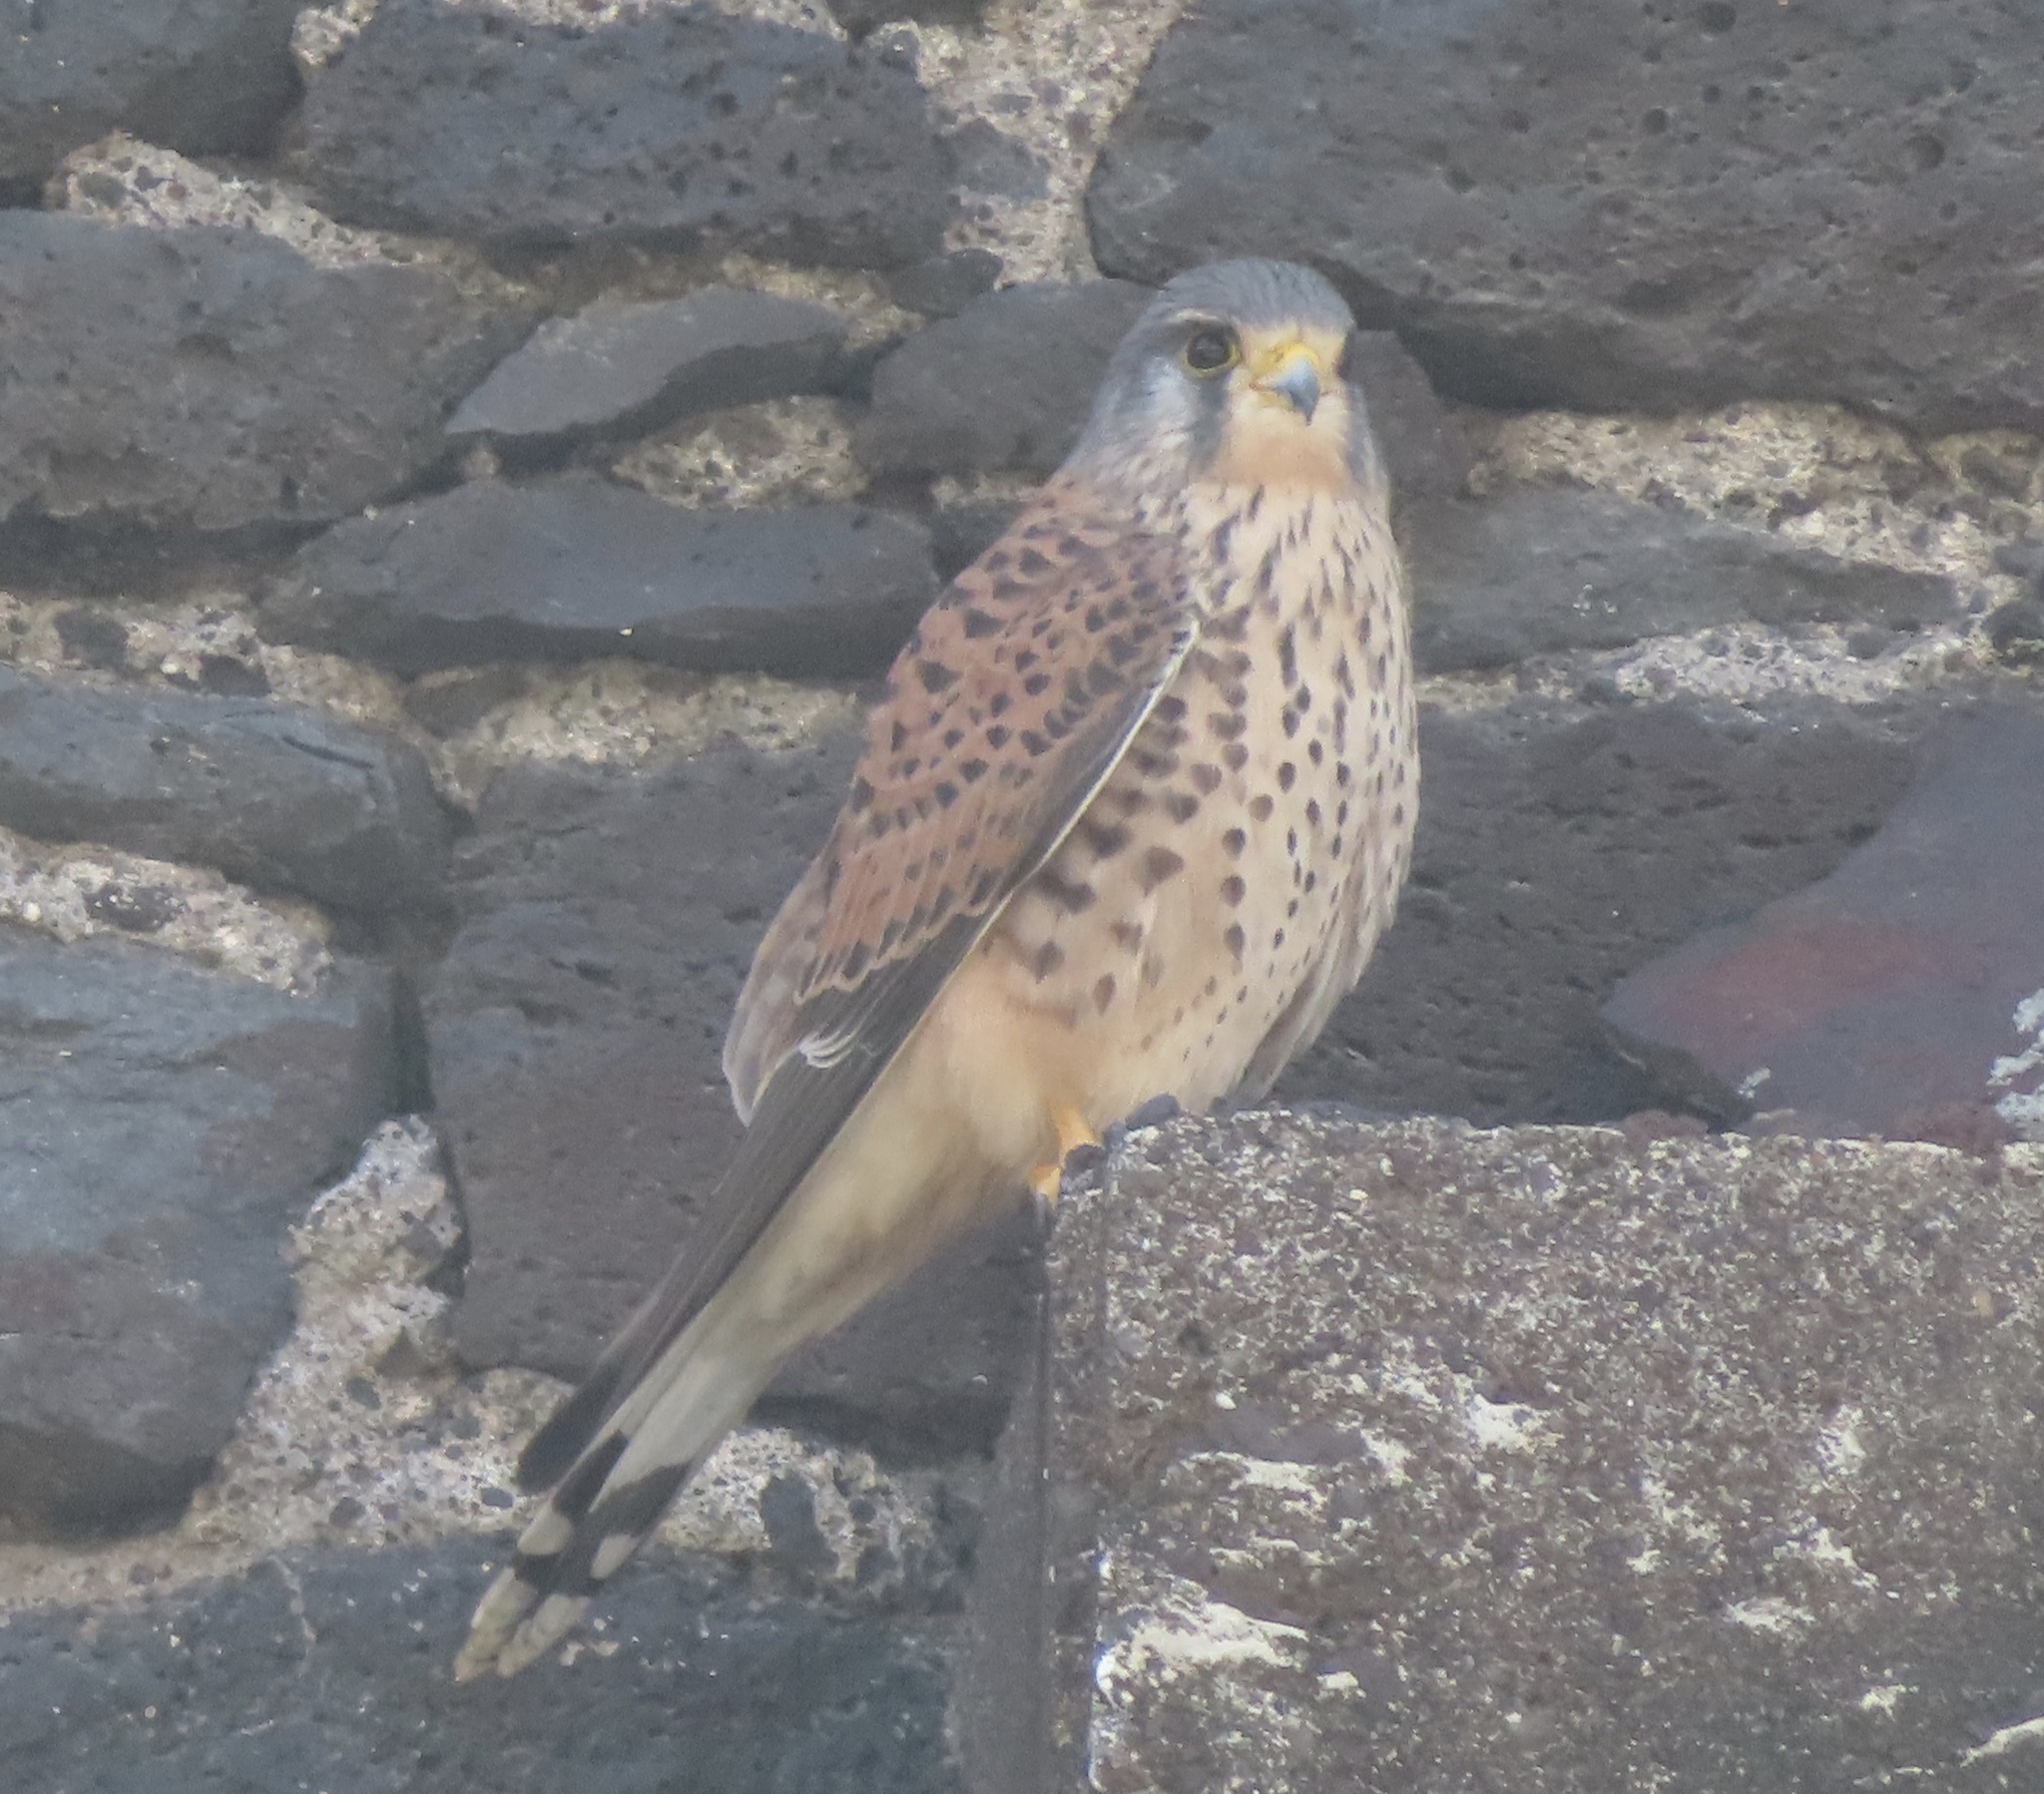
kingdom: Animalia
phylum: Chordata
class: Aves
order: Falconiformes
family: Falconidae
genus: Falco
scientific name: Falco tinnunculus
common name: Common kestrel
